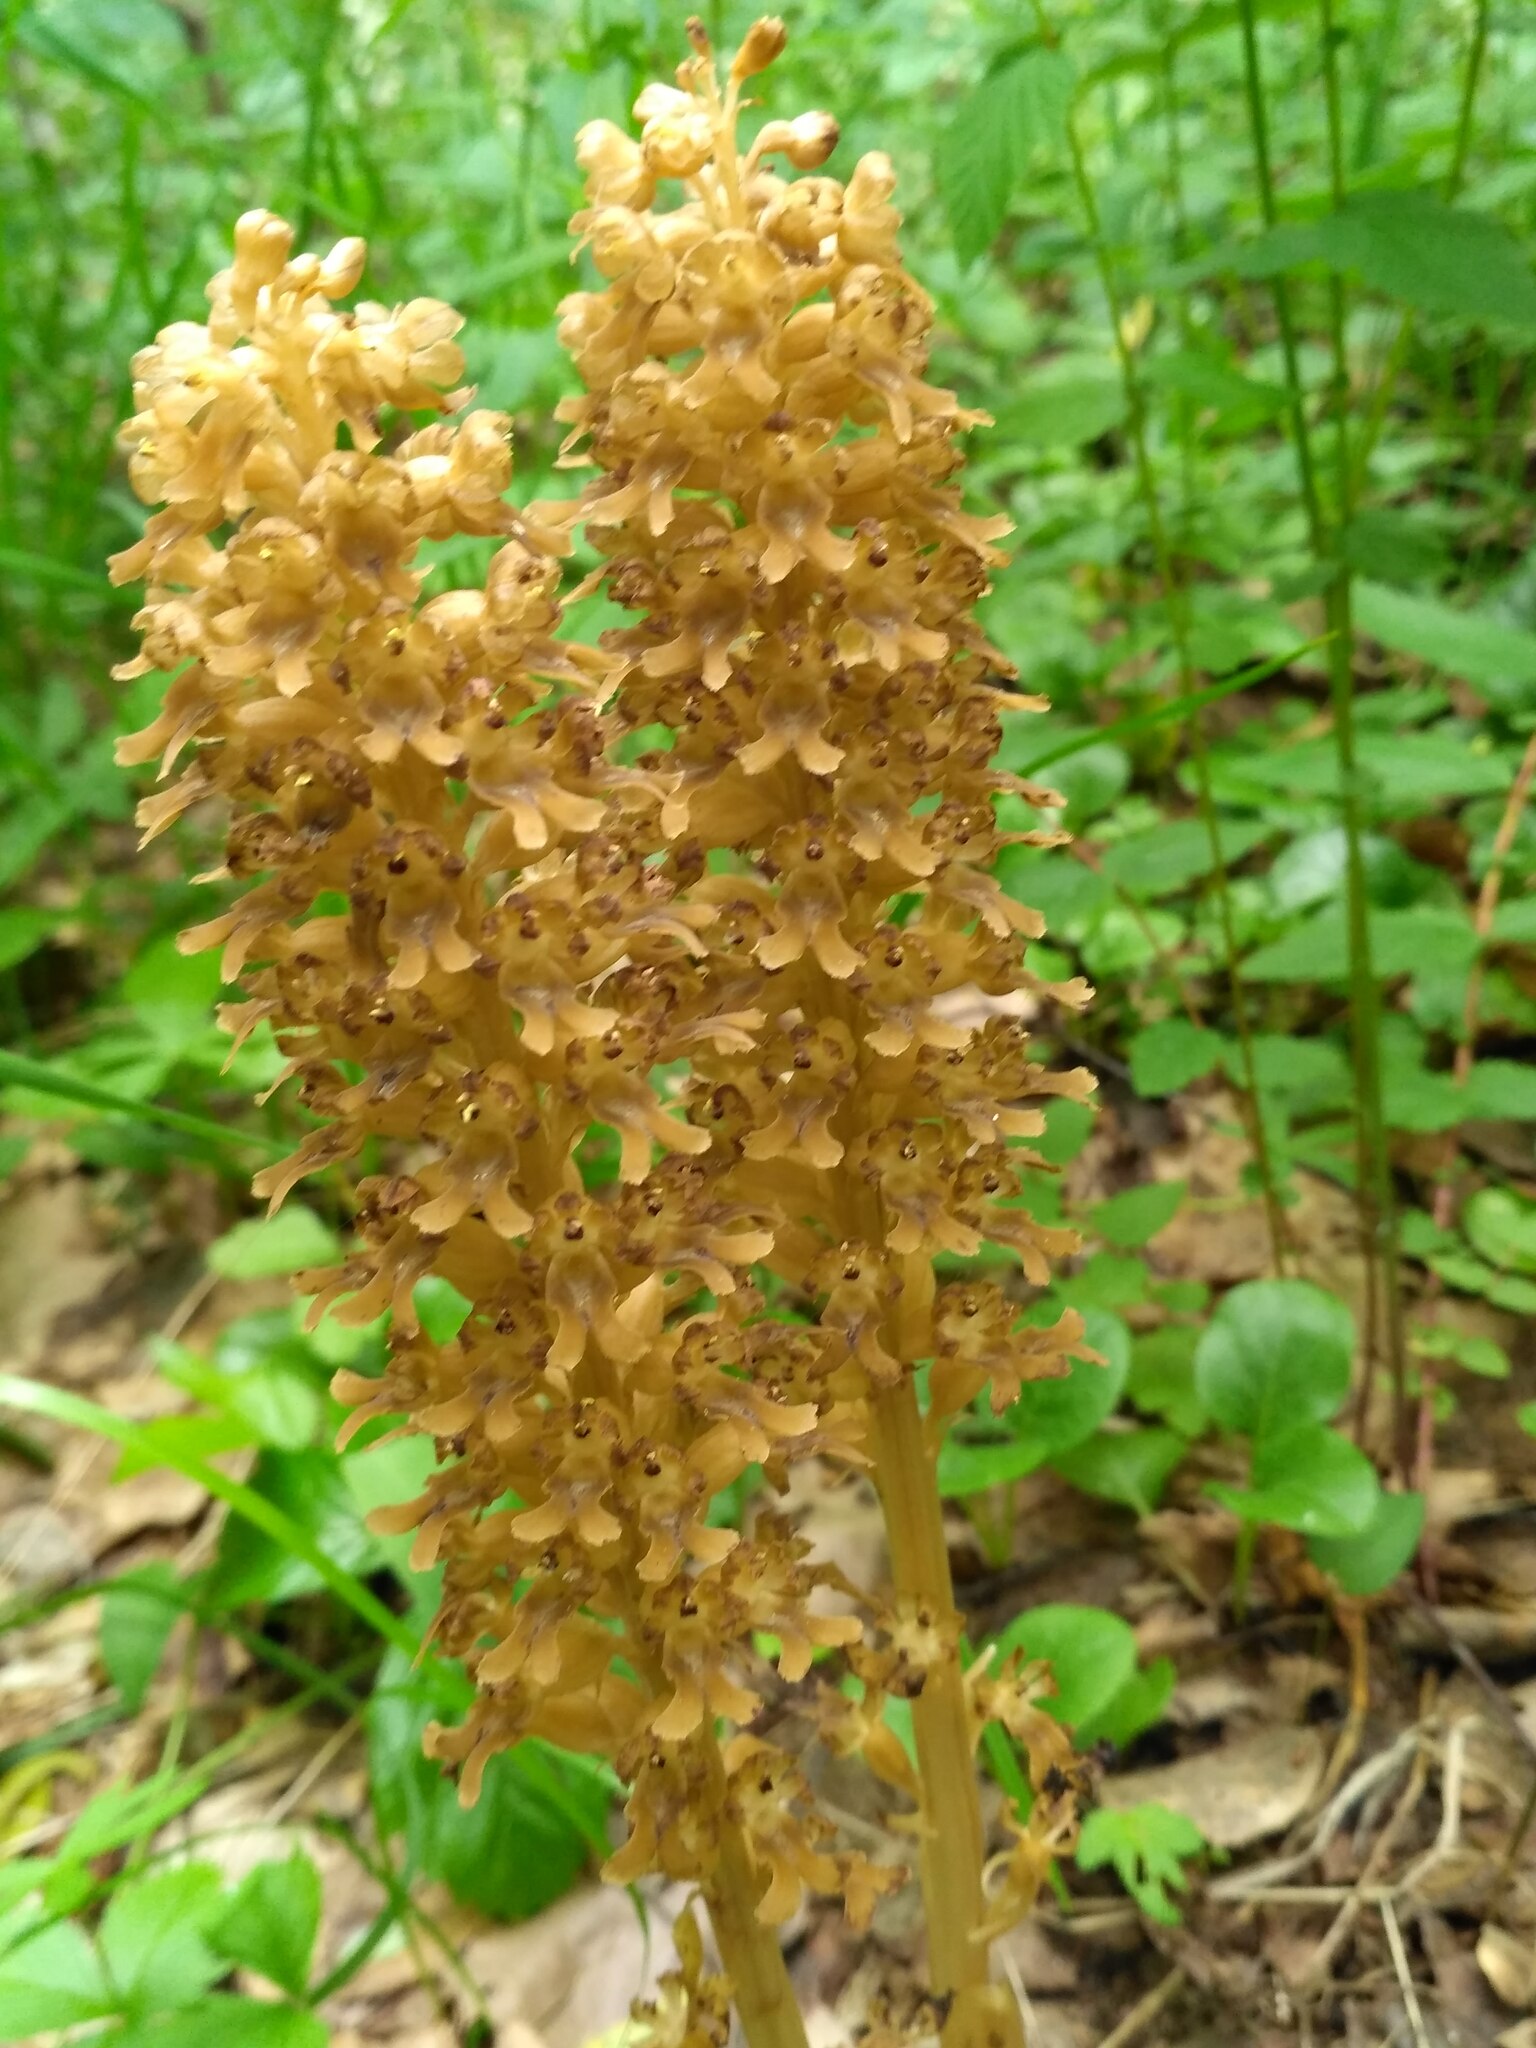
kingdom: Plantae
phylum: Tracheophyta
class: Liliopsida
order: Asparagales
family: Orchidaceae
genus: Neottia
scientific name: Neottia nidus-avis
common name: Bird's-nest orchid
